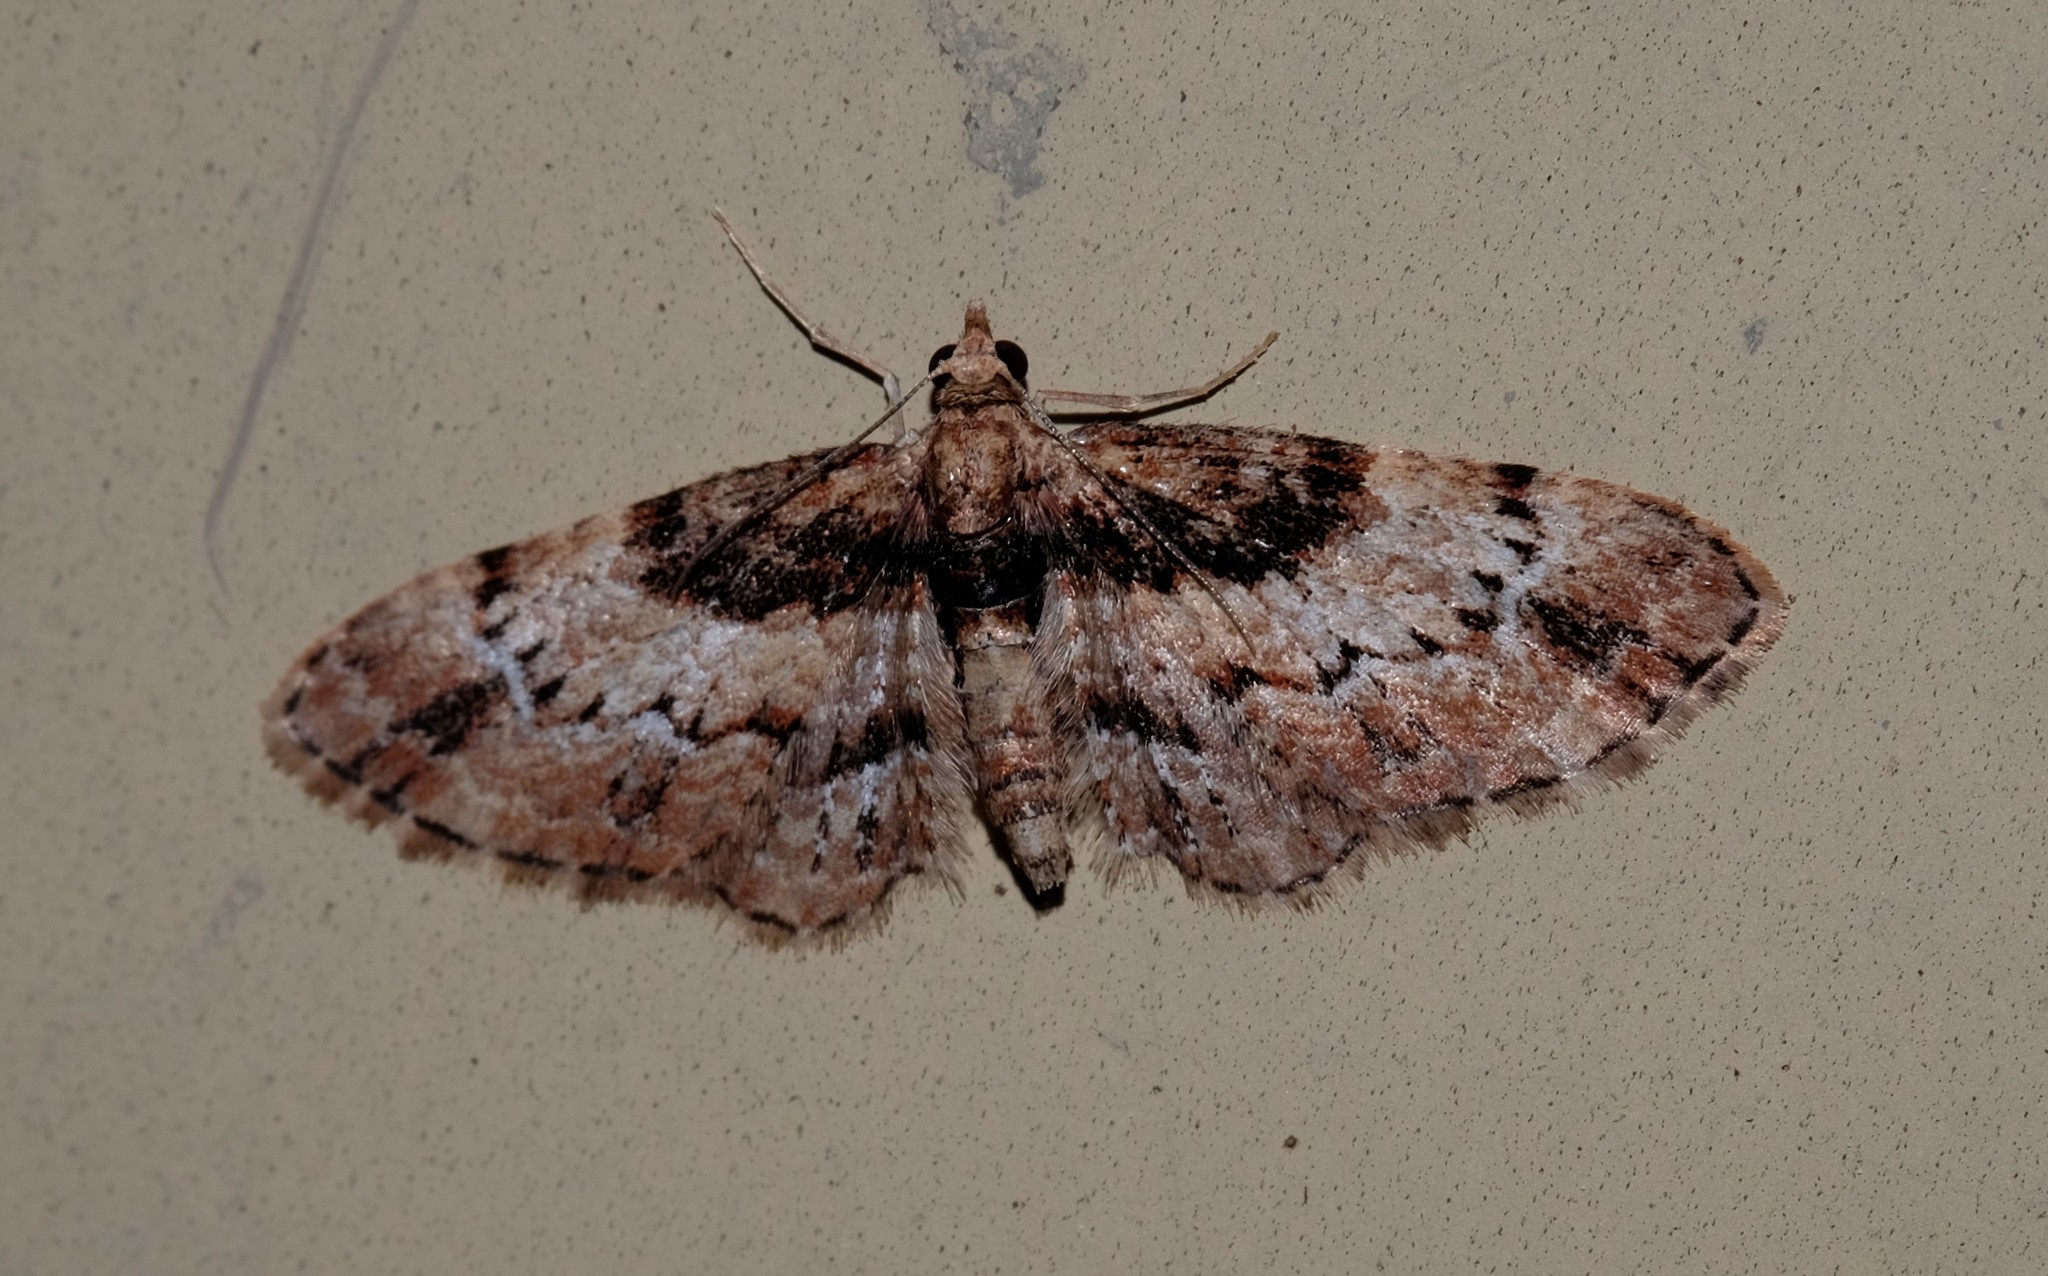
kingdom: Animalia
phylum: Arthropoda
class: Insecta
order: Lepidoptera
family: Geometridae
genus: Chloroclystis
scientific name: Chloroclystis approximata
